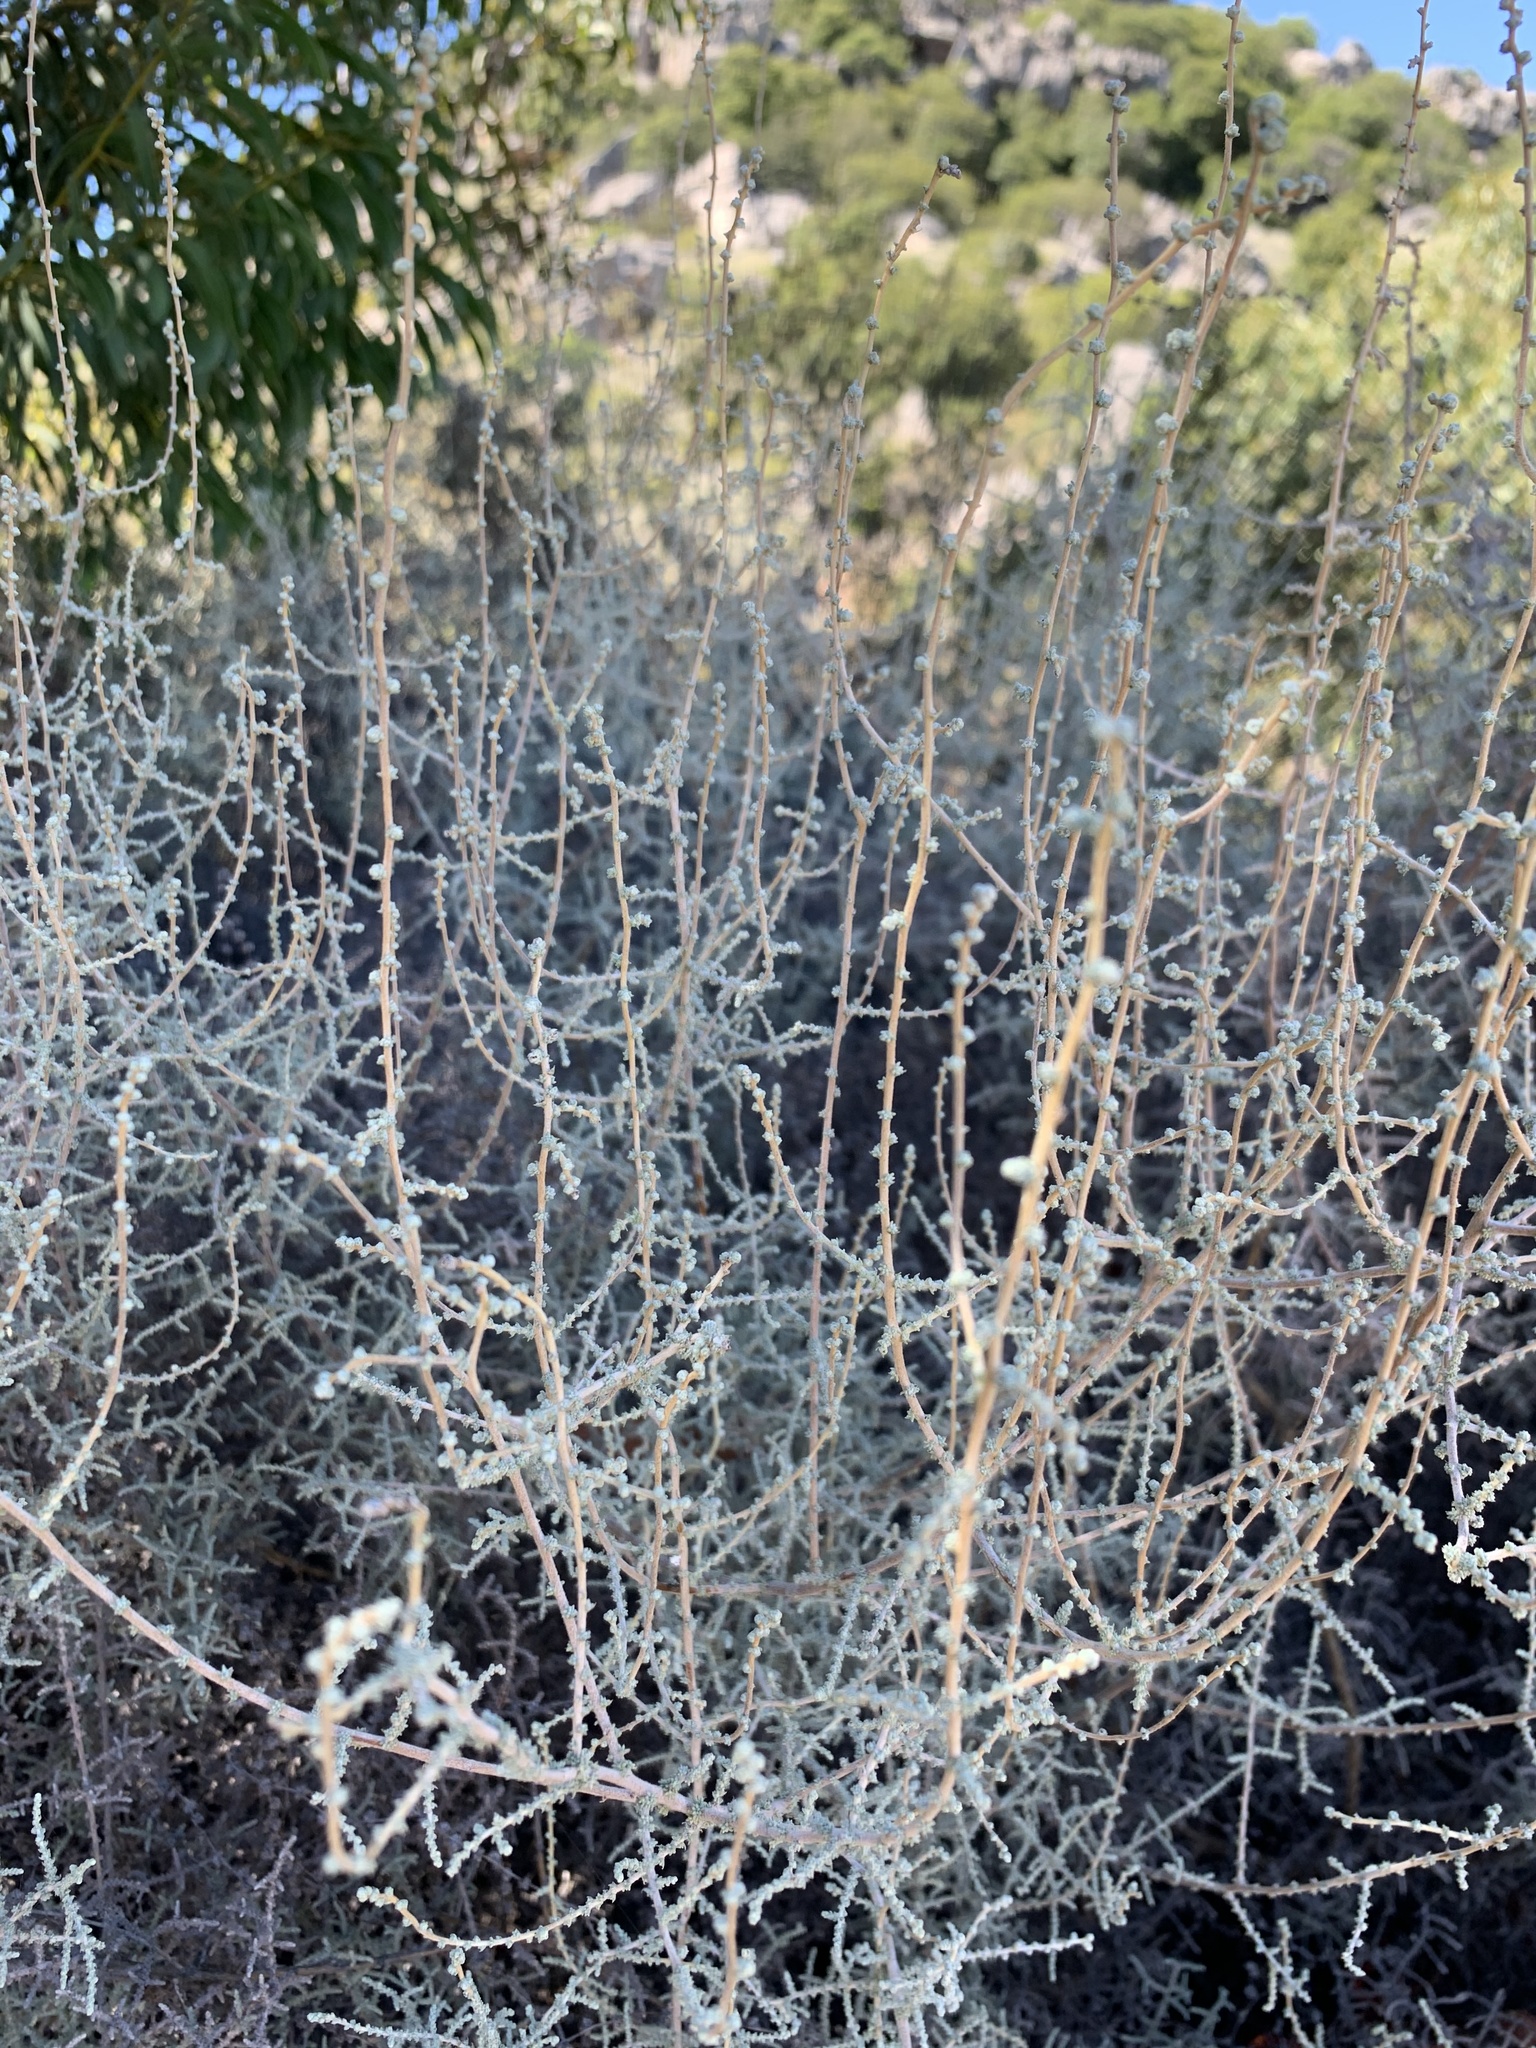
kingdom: Plantae
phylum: Tracheophyta
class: Magnoliopsida
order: Asterales
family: Asteraceae
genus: Seriphium
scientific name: Seriphium plumosum
